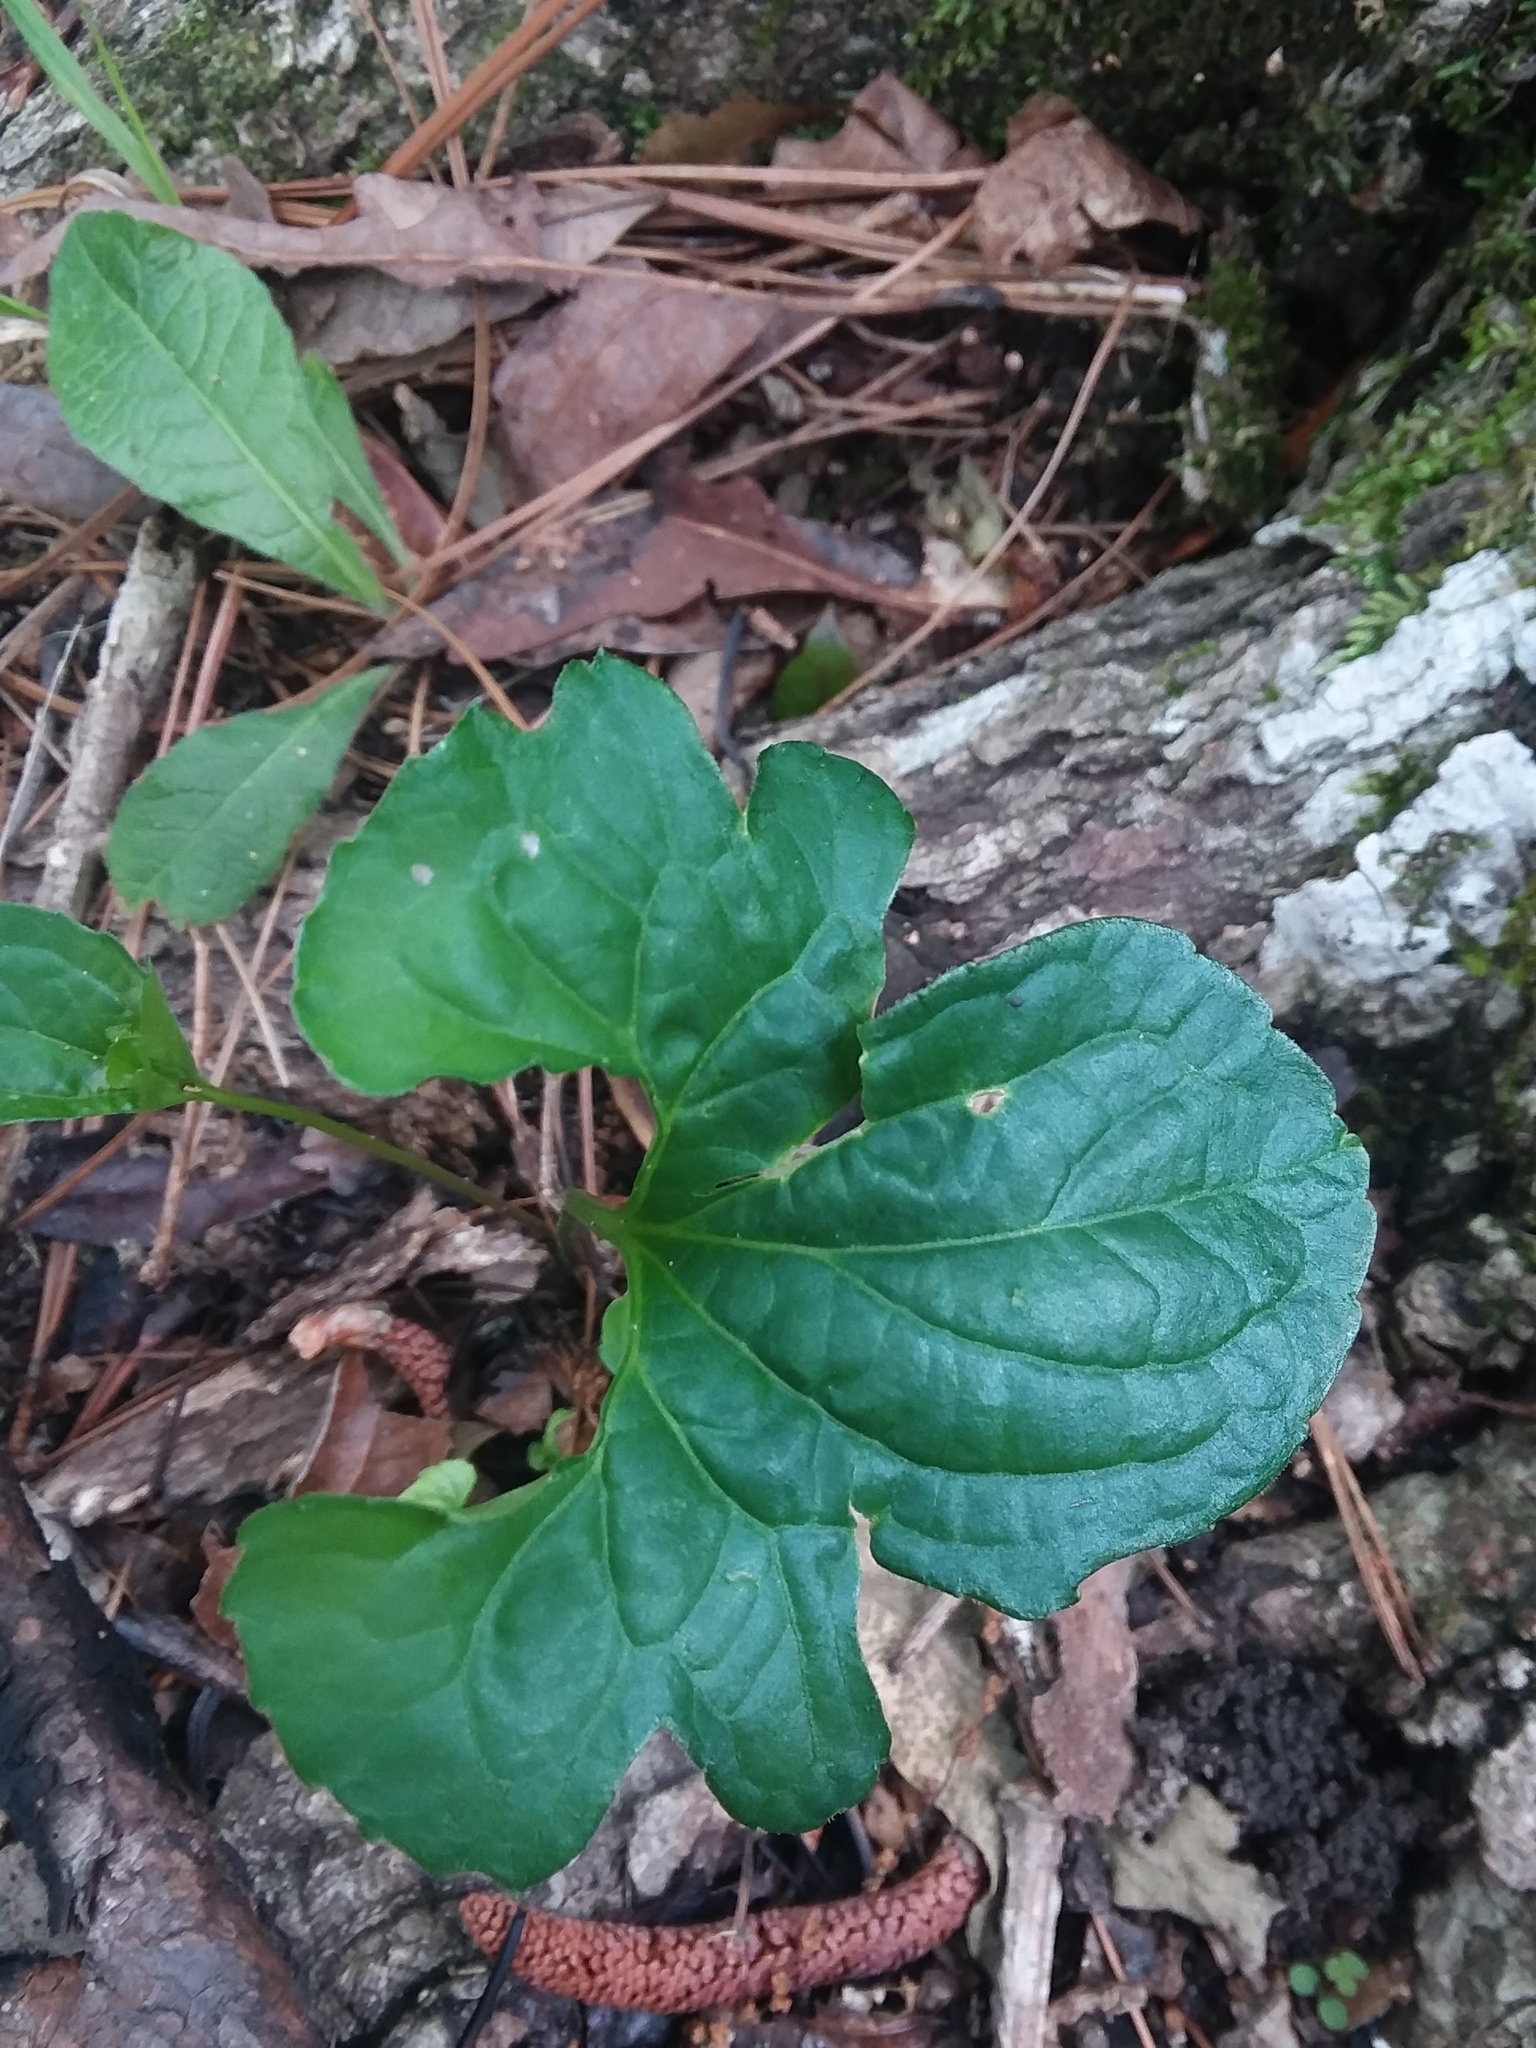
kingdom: Plantae
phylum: Tracheophyta
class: Magnoliopsida
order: Malpighiales
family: Violaceae
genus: Viola
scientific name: Viola edulis
